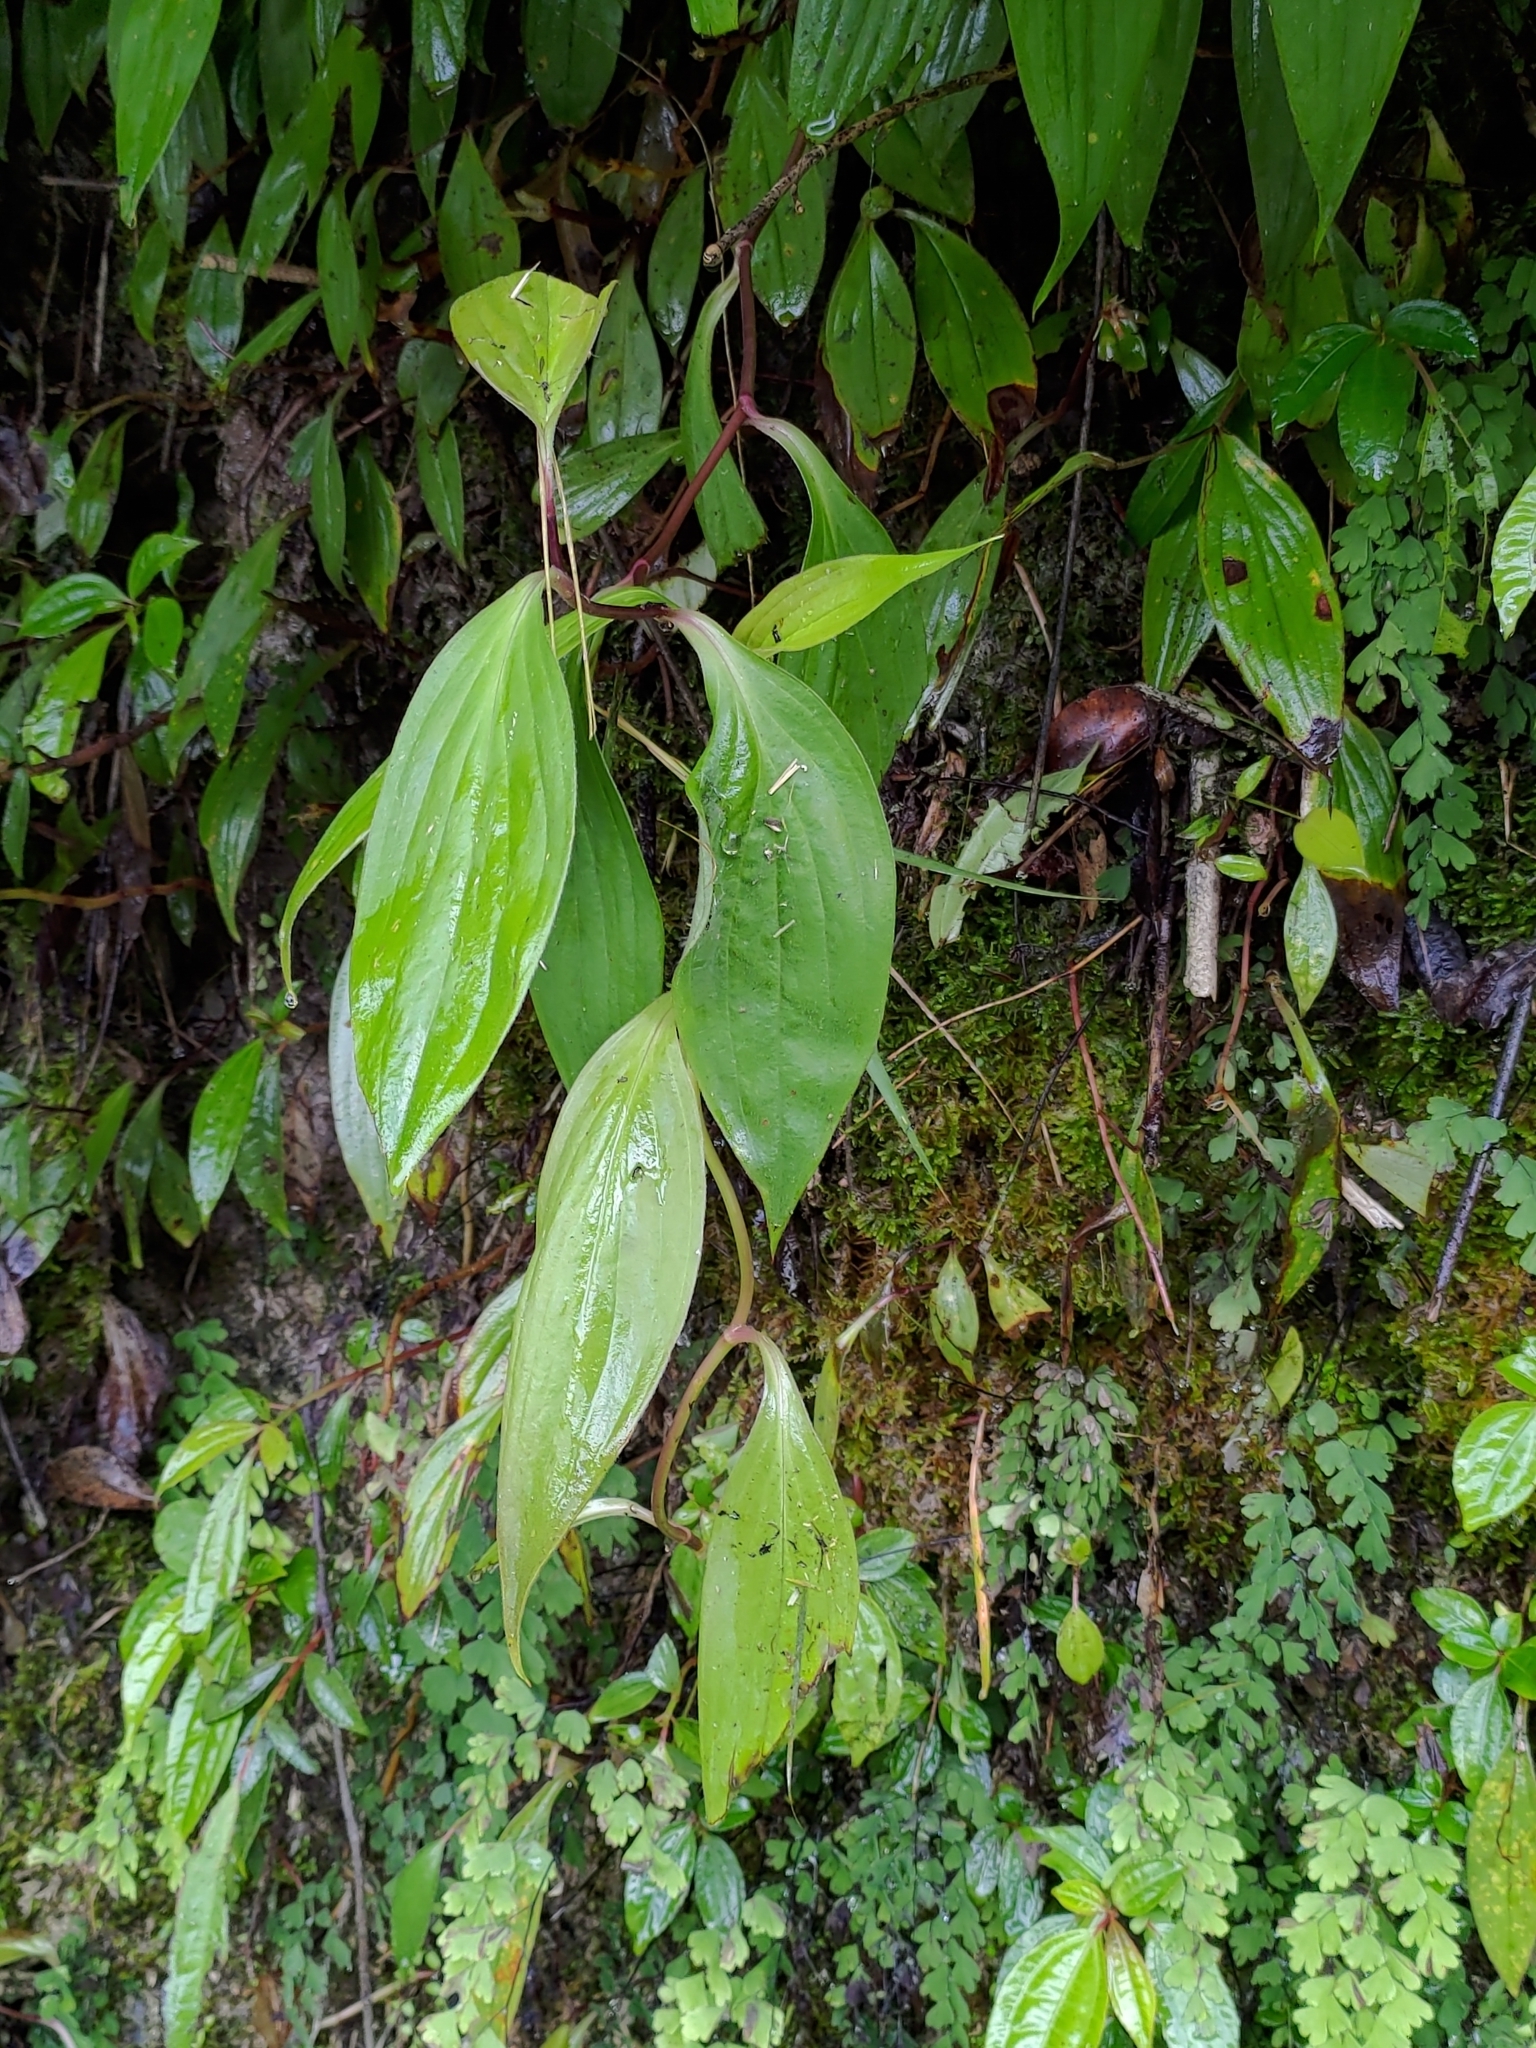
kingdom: Plantae
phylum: Tracheophyta
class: Liliopsida
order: Liliales
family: Liliaceae
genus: Tricyrtis
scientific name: Tricyrtis formosana
